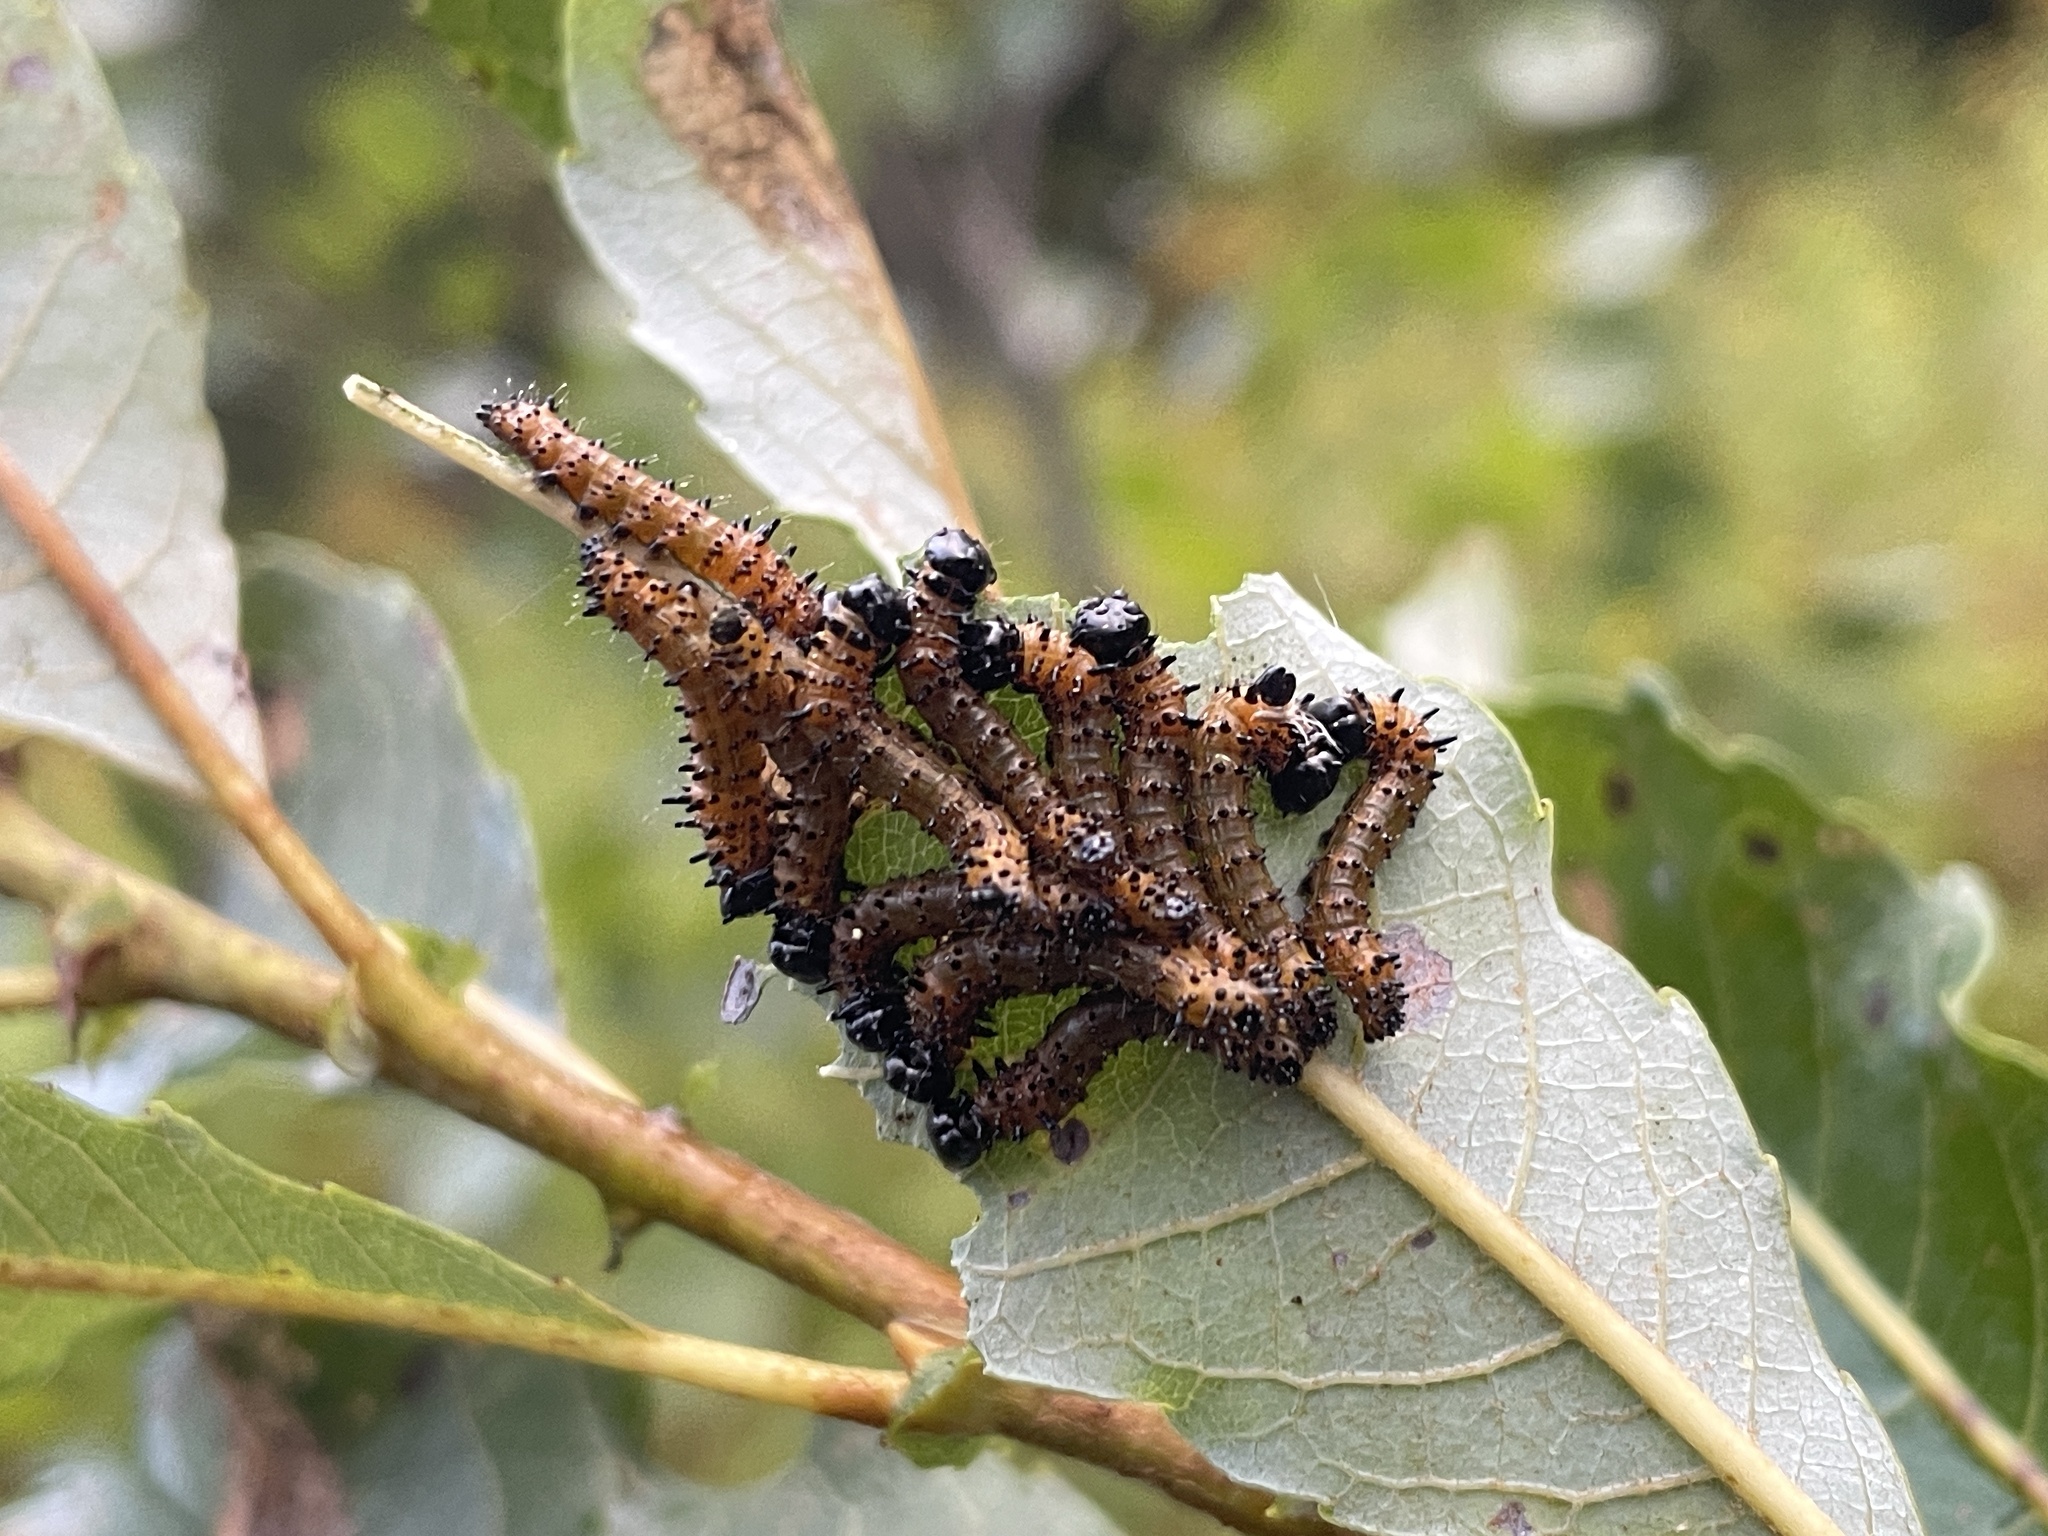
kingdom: Animalia
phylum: Arthropoda
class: Insecta
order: Lepidoptera
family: Notodontidae
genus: Schizura
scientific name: Schizura
